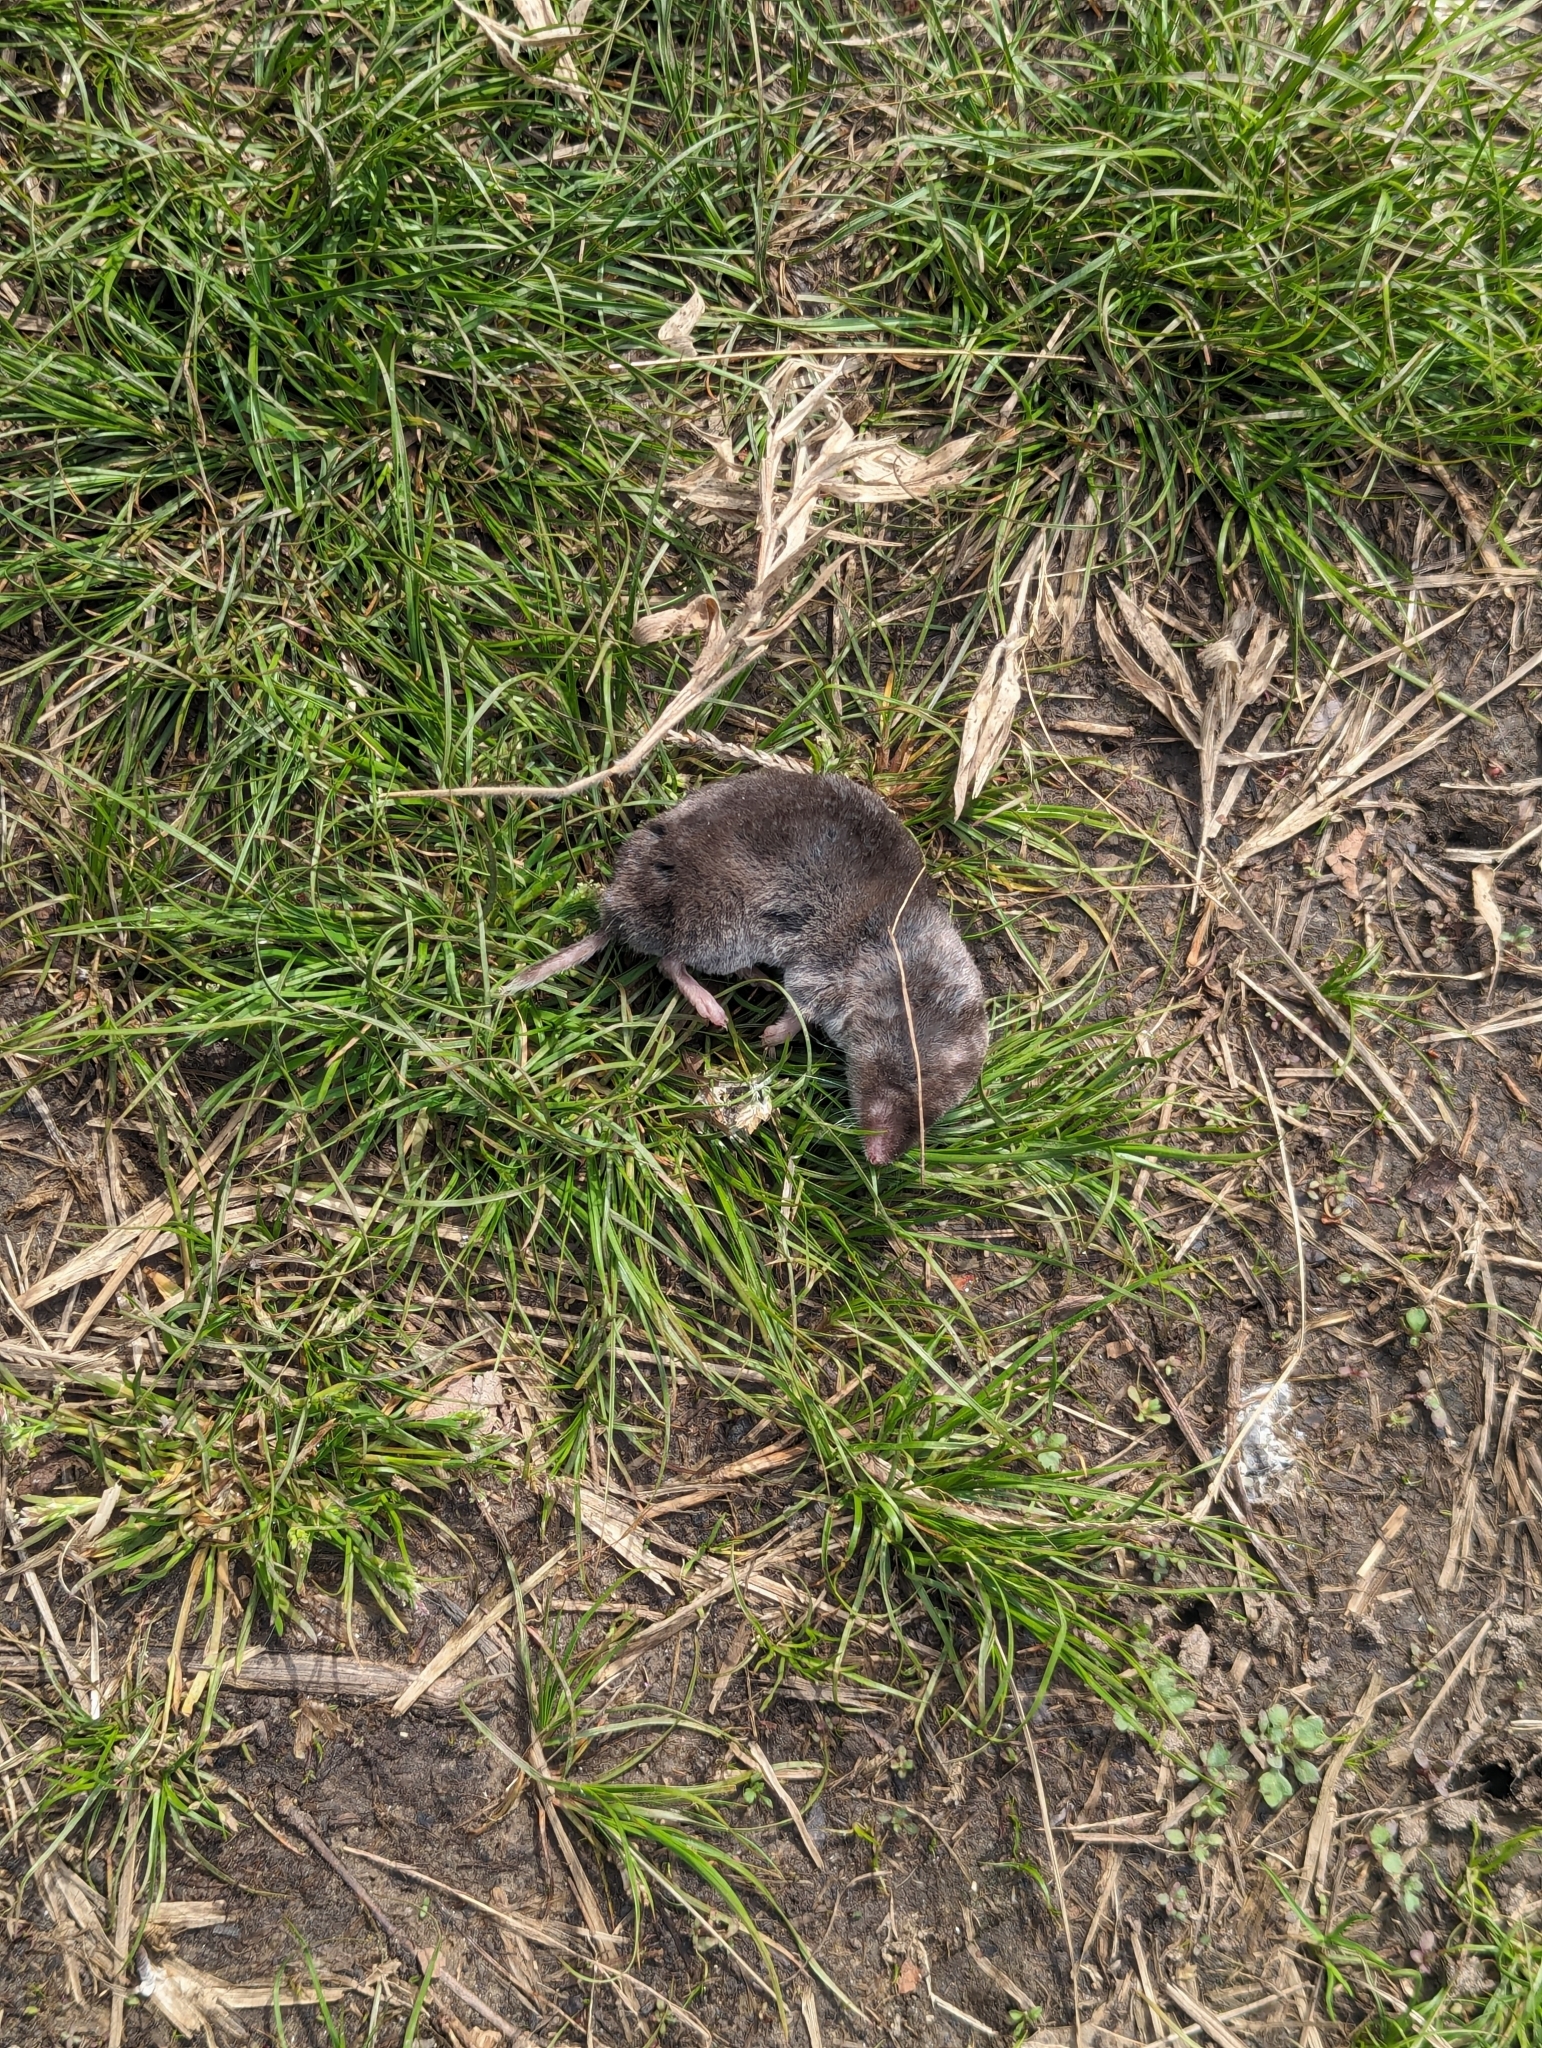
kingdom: Animalia
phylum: Chordata
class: Mammalia
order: Soricomorpha
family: Soricidae
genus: Blarina
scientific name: Blarina brevicauda
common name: Northern short-tailed shrew
